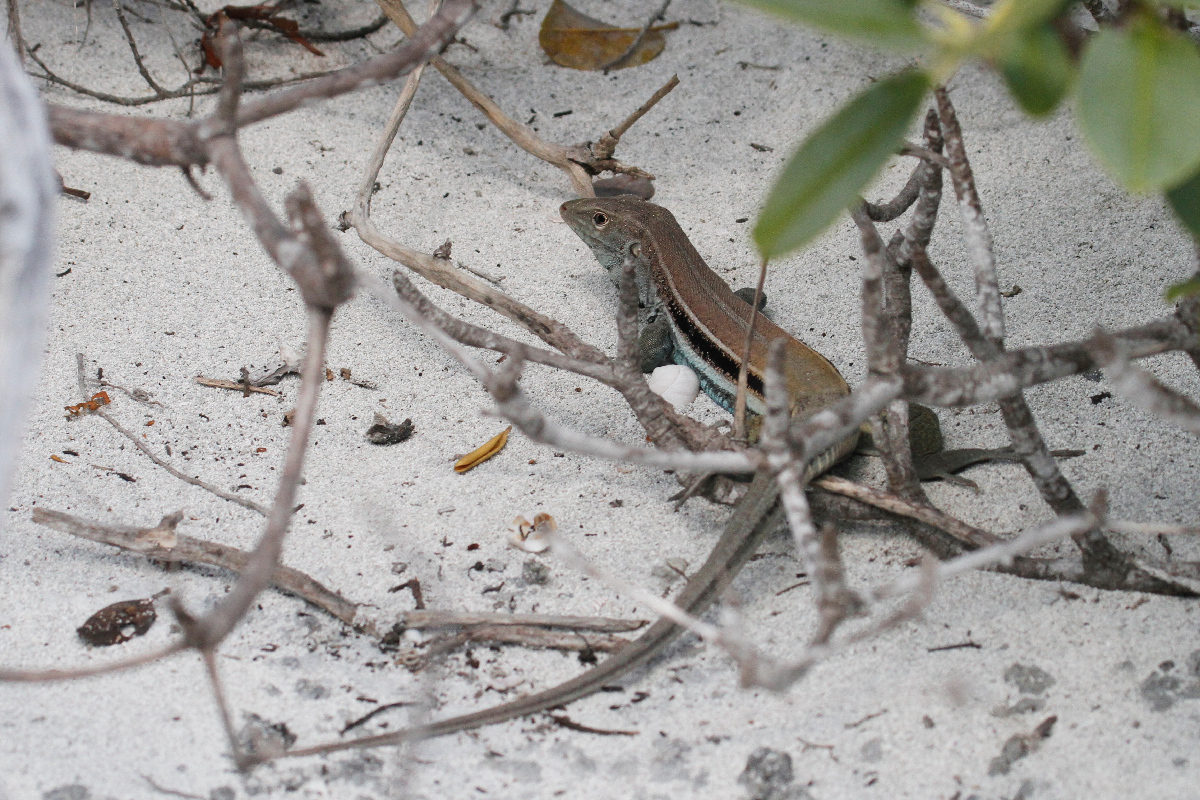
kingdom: Animalia
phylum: Chordata
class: Squamata
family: Teiidae
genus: Pholidoscelis
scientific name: Pholidoscelis auberi
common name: Auber's ameiva
